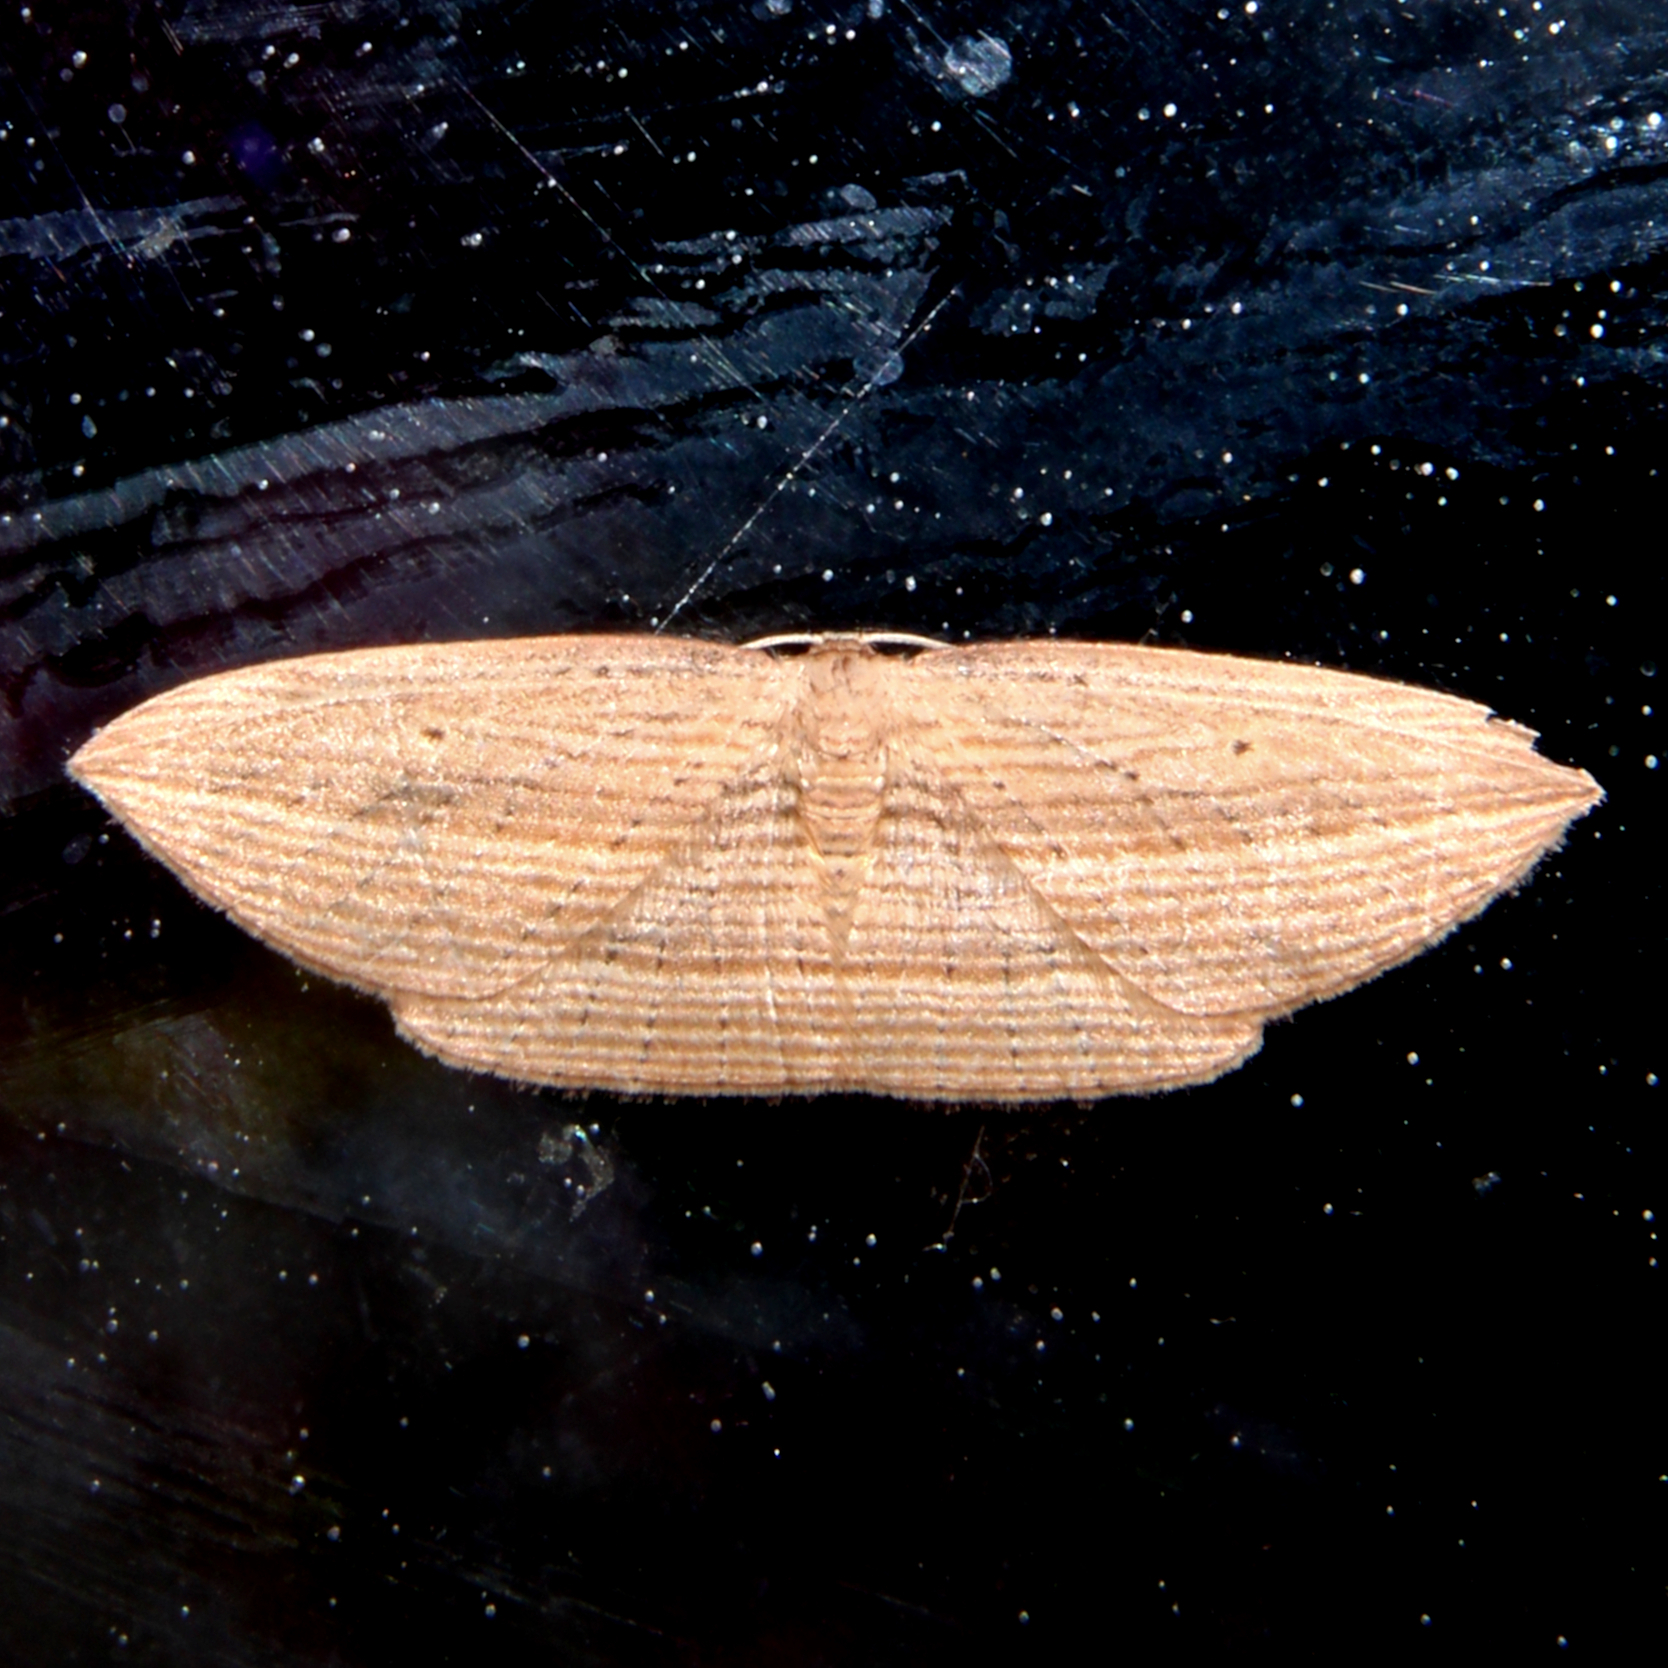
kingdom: Animalia
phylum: Arthropoda
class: Insecta
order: Lepidoptera
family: Geometridae
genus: Epiphryne
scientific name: Epiphryne verriculata
